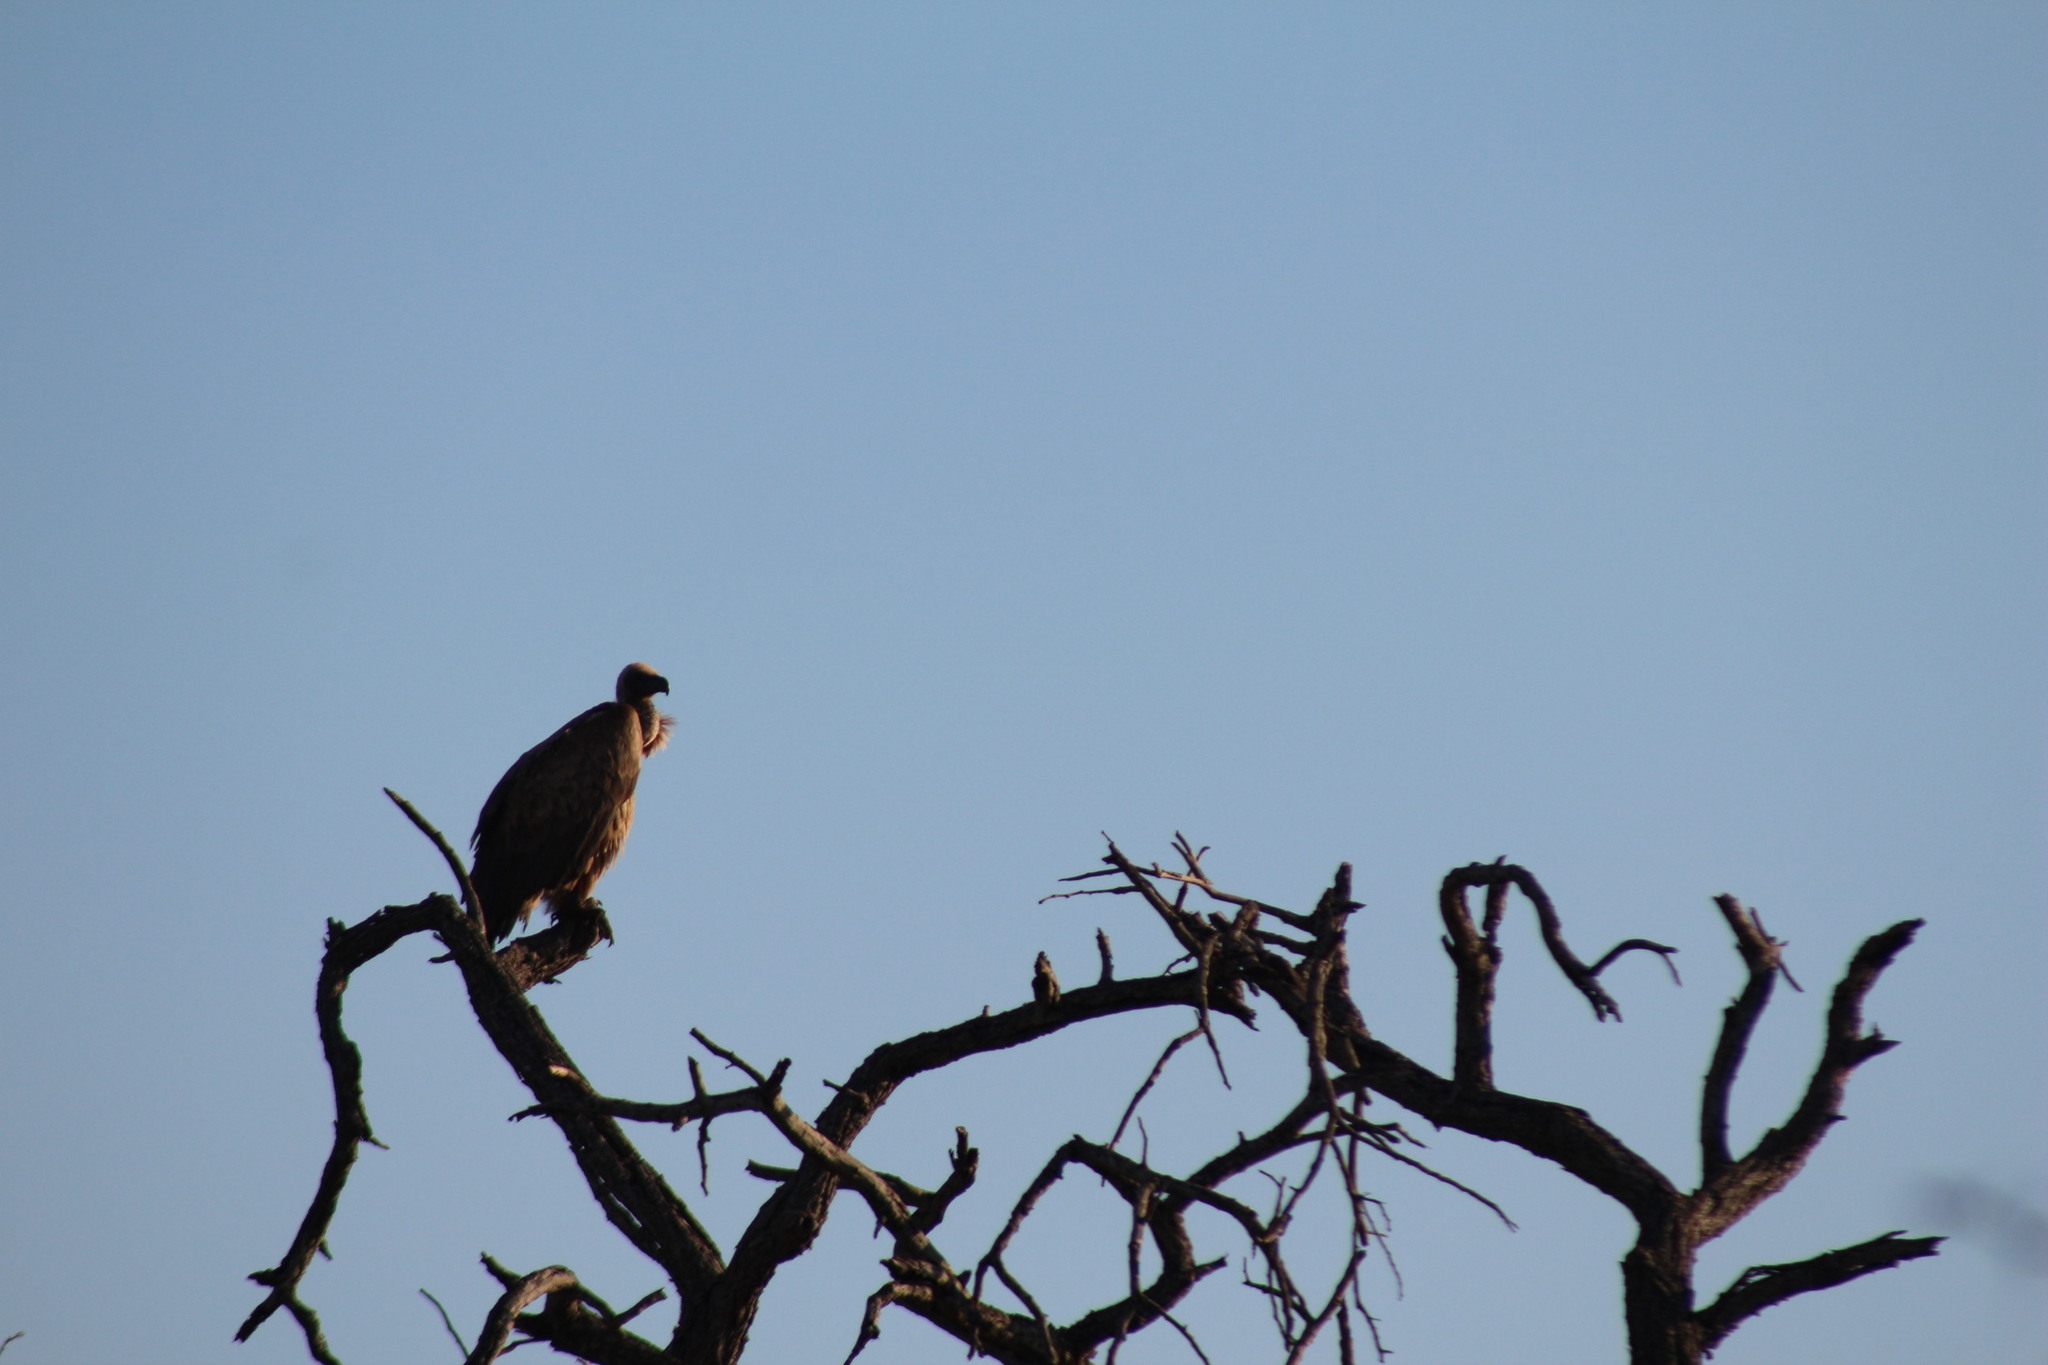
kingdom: Animalia
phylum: Chordata
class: Aves
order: Accipitriformes
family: Accipitridae
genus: Gyps
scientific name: Gyps africanus
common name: White-backed vulture
